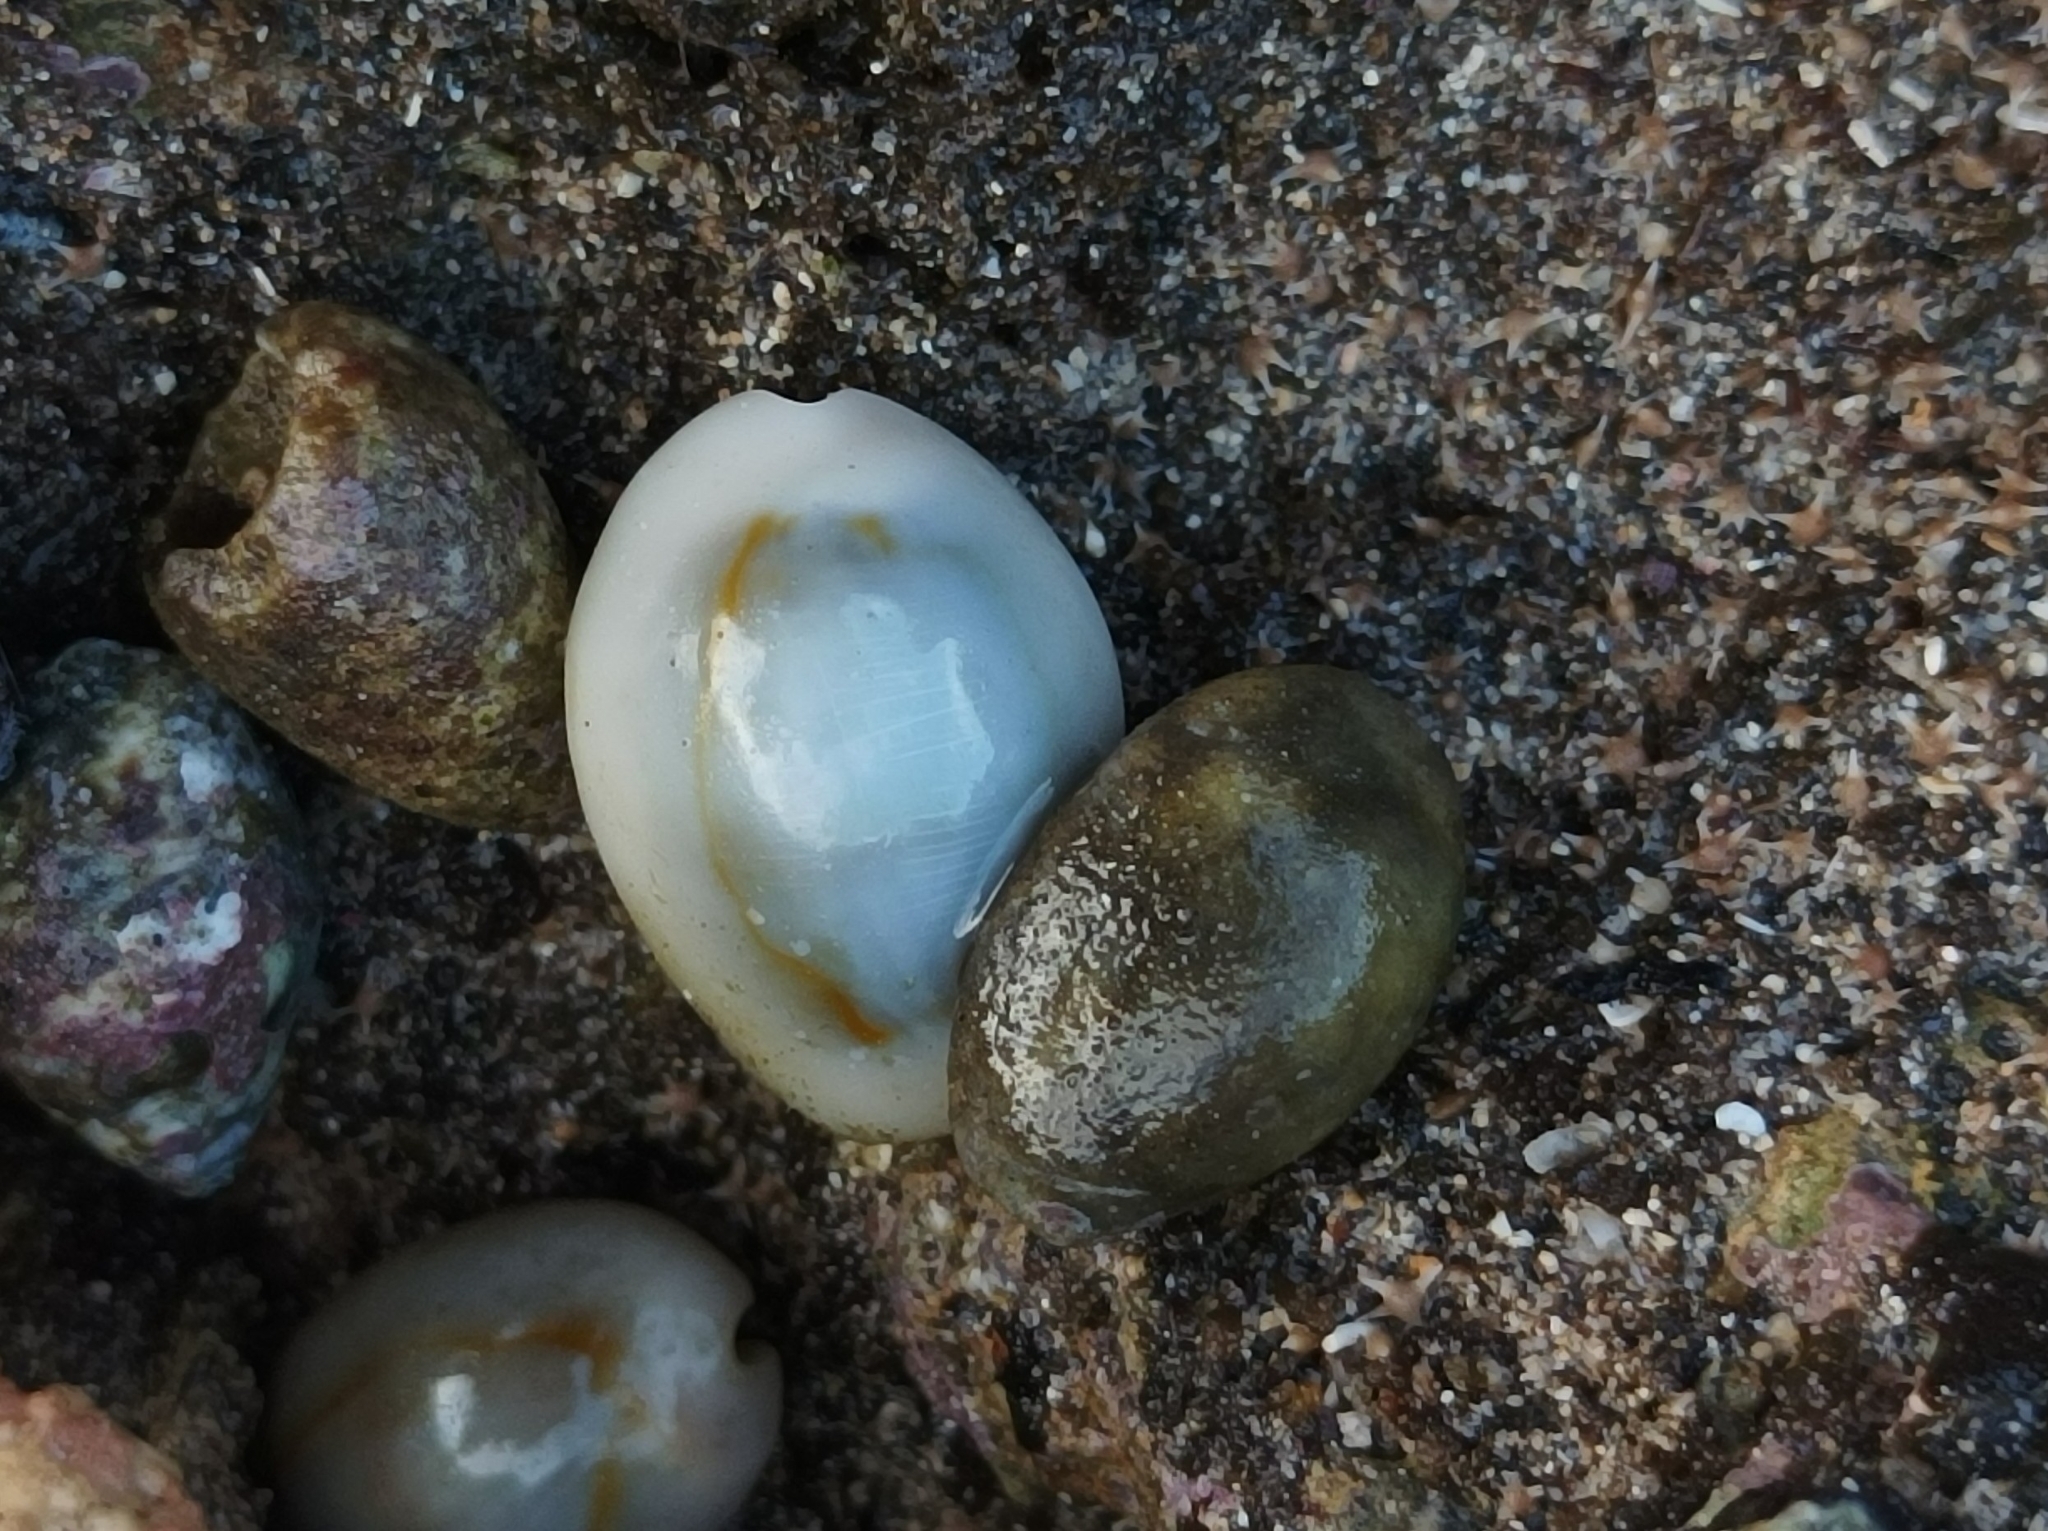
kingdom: Animalia
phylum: Mollusca
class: Gastropoda
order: Littorinimorpha
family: Cypraeidae
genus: Monetaria
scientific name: Monetaria annulus
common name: Ring cowrie
